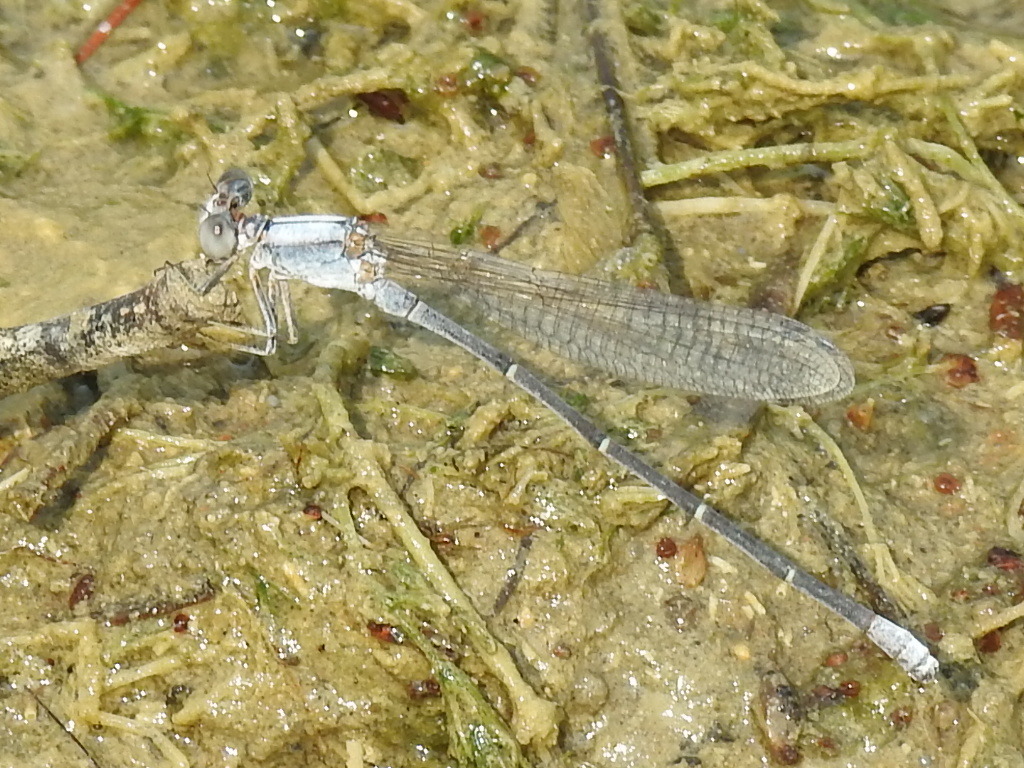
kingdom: Animalia
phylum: Arthropoda
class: Insecta
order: Odonata
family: Coenagrionidae
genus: Argia
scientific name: Argia moesta
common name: Powdered dancer
